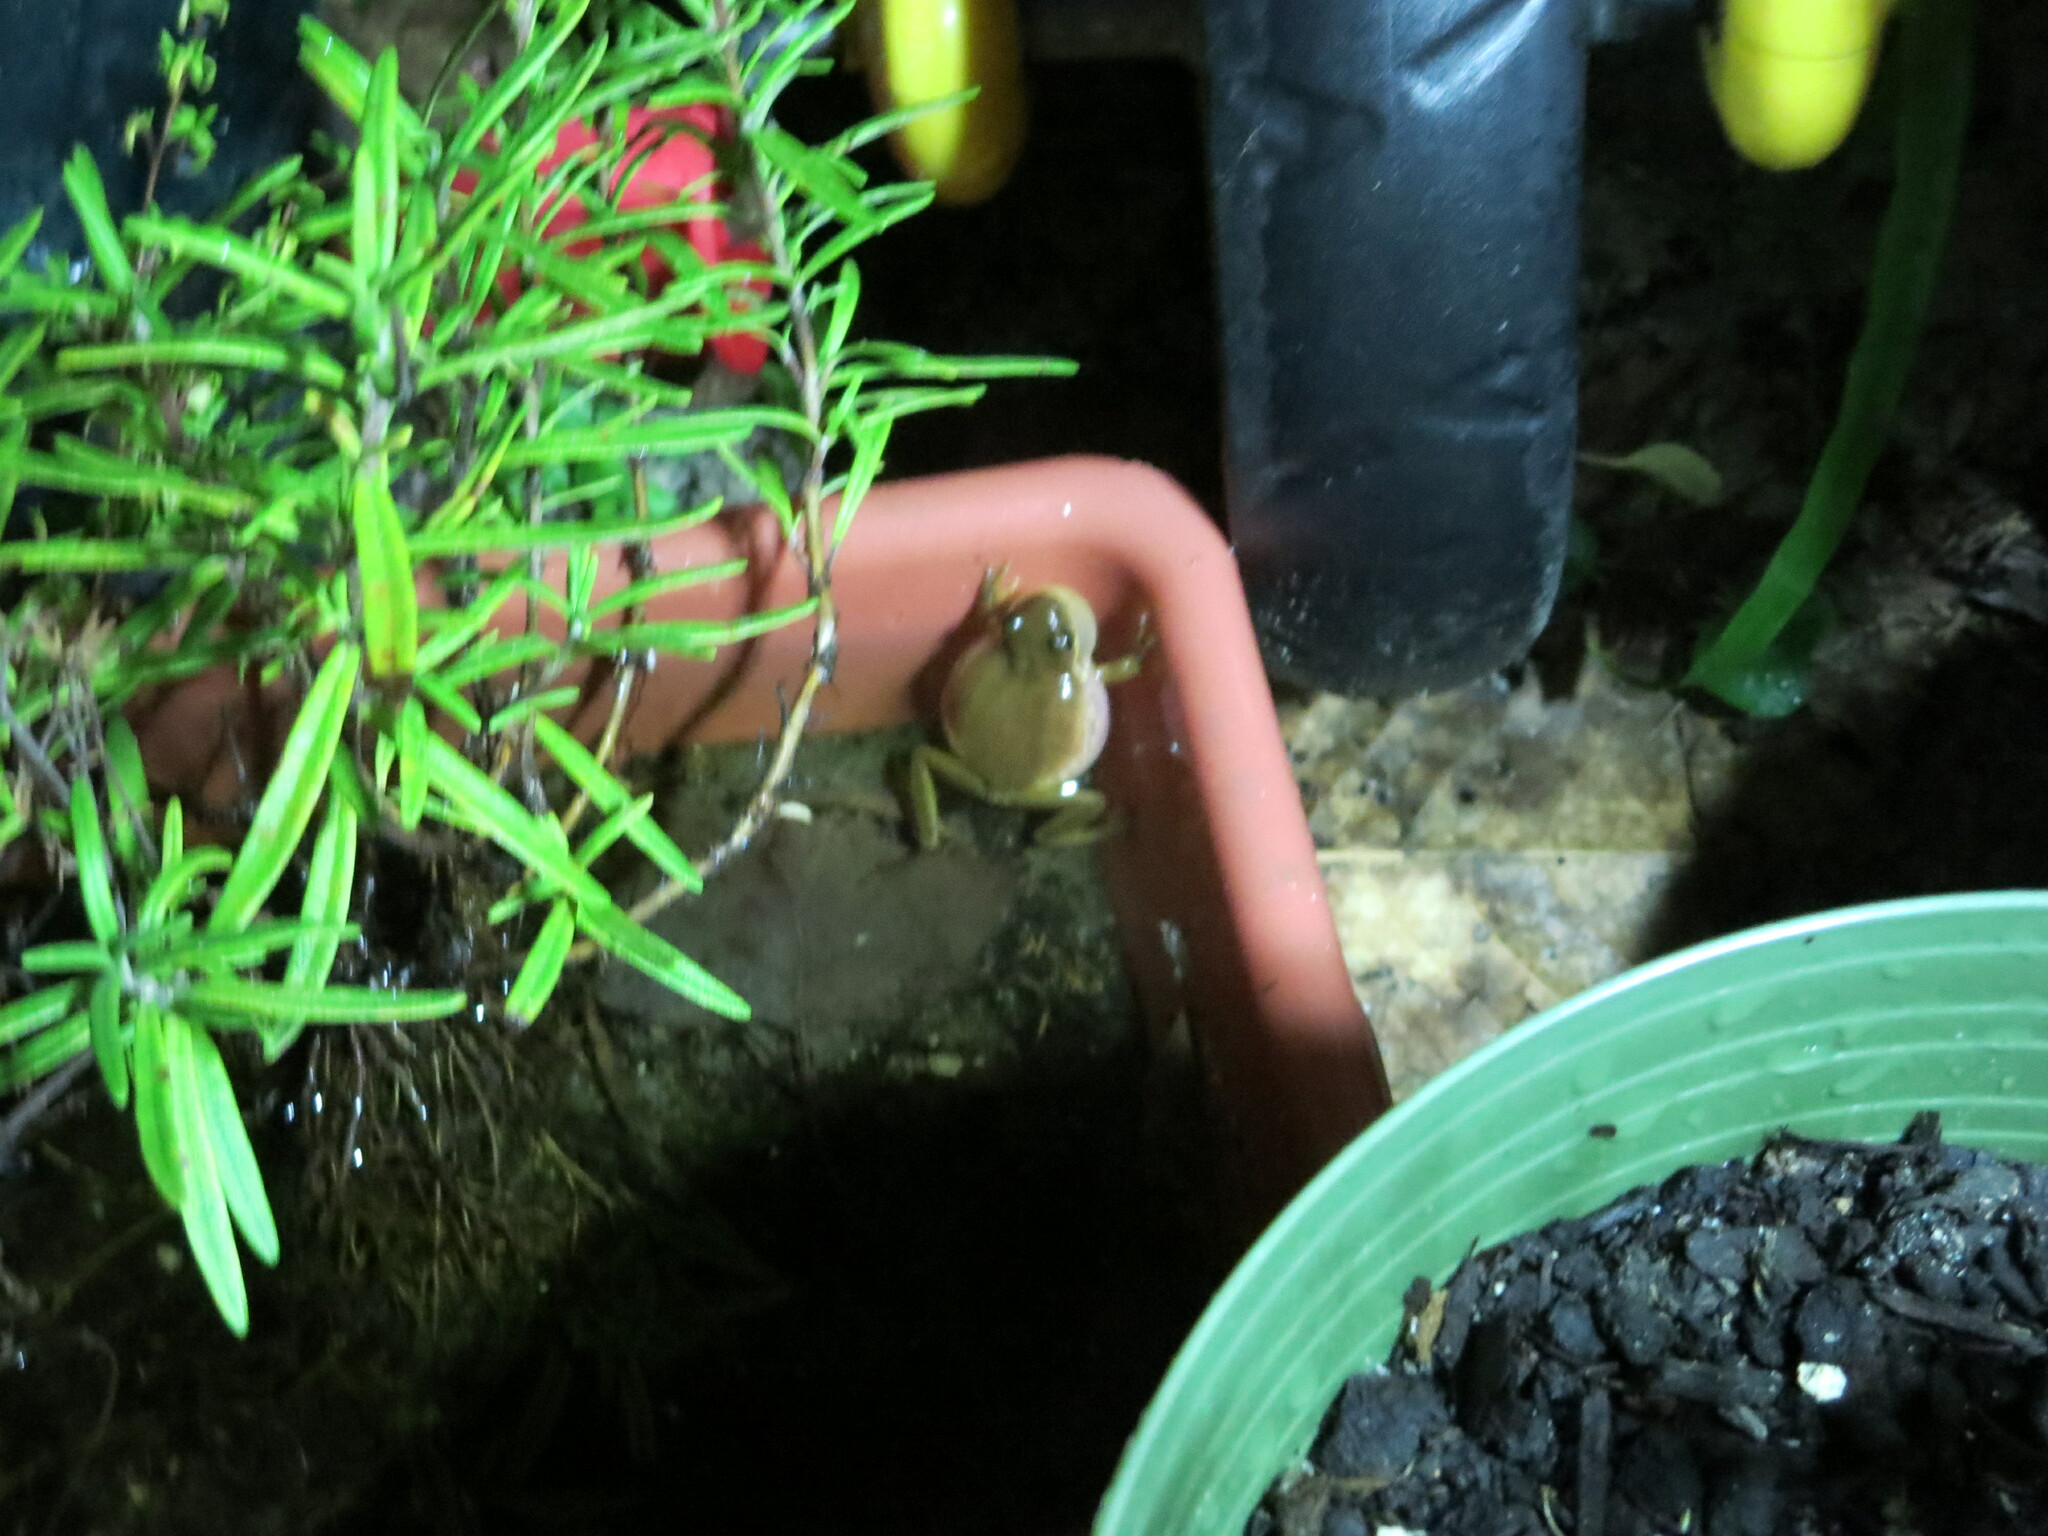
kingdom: Animalia
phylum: Chordata
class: Amphibia
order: Anura
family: Hylidae
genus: Dryophytes
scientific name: Dryophytes squirellus
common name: Squirrel treefrog
